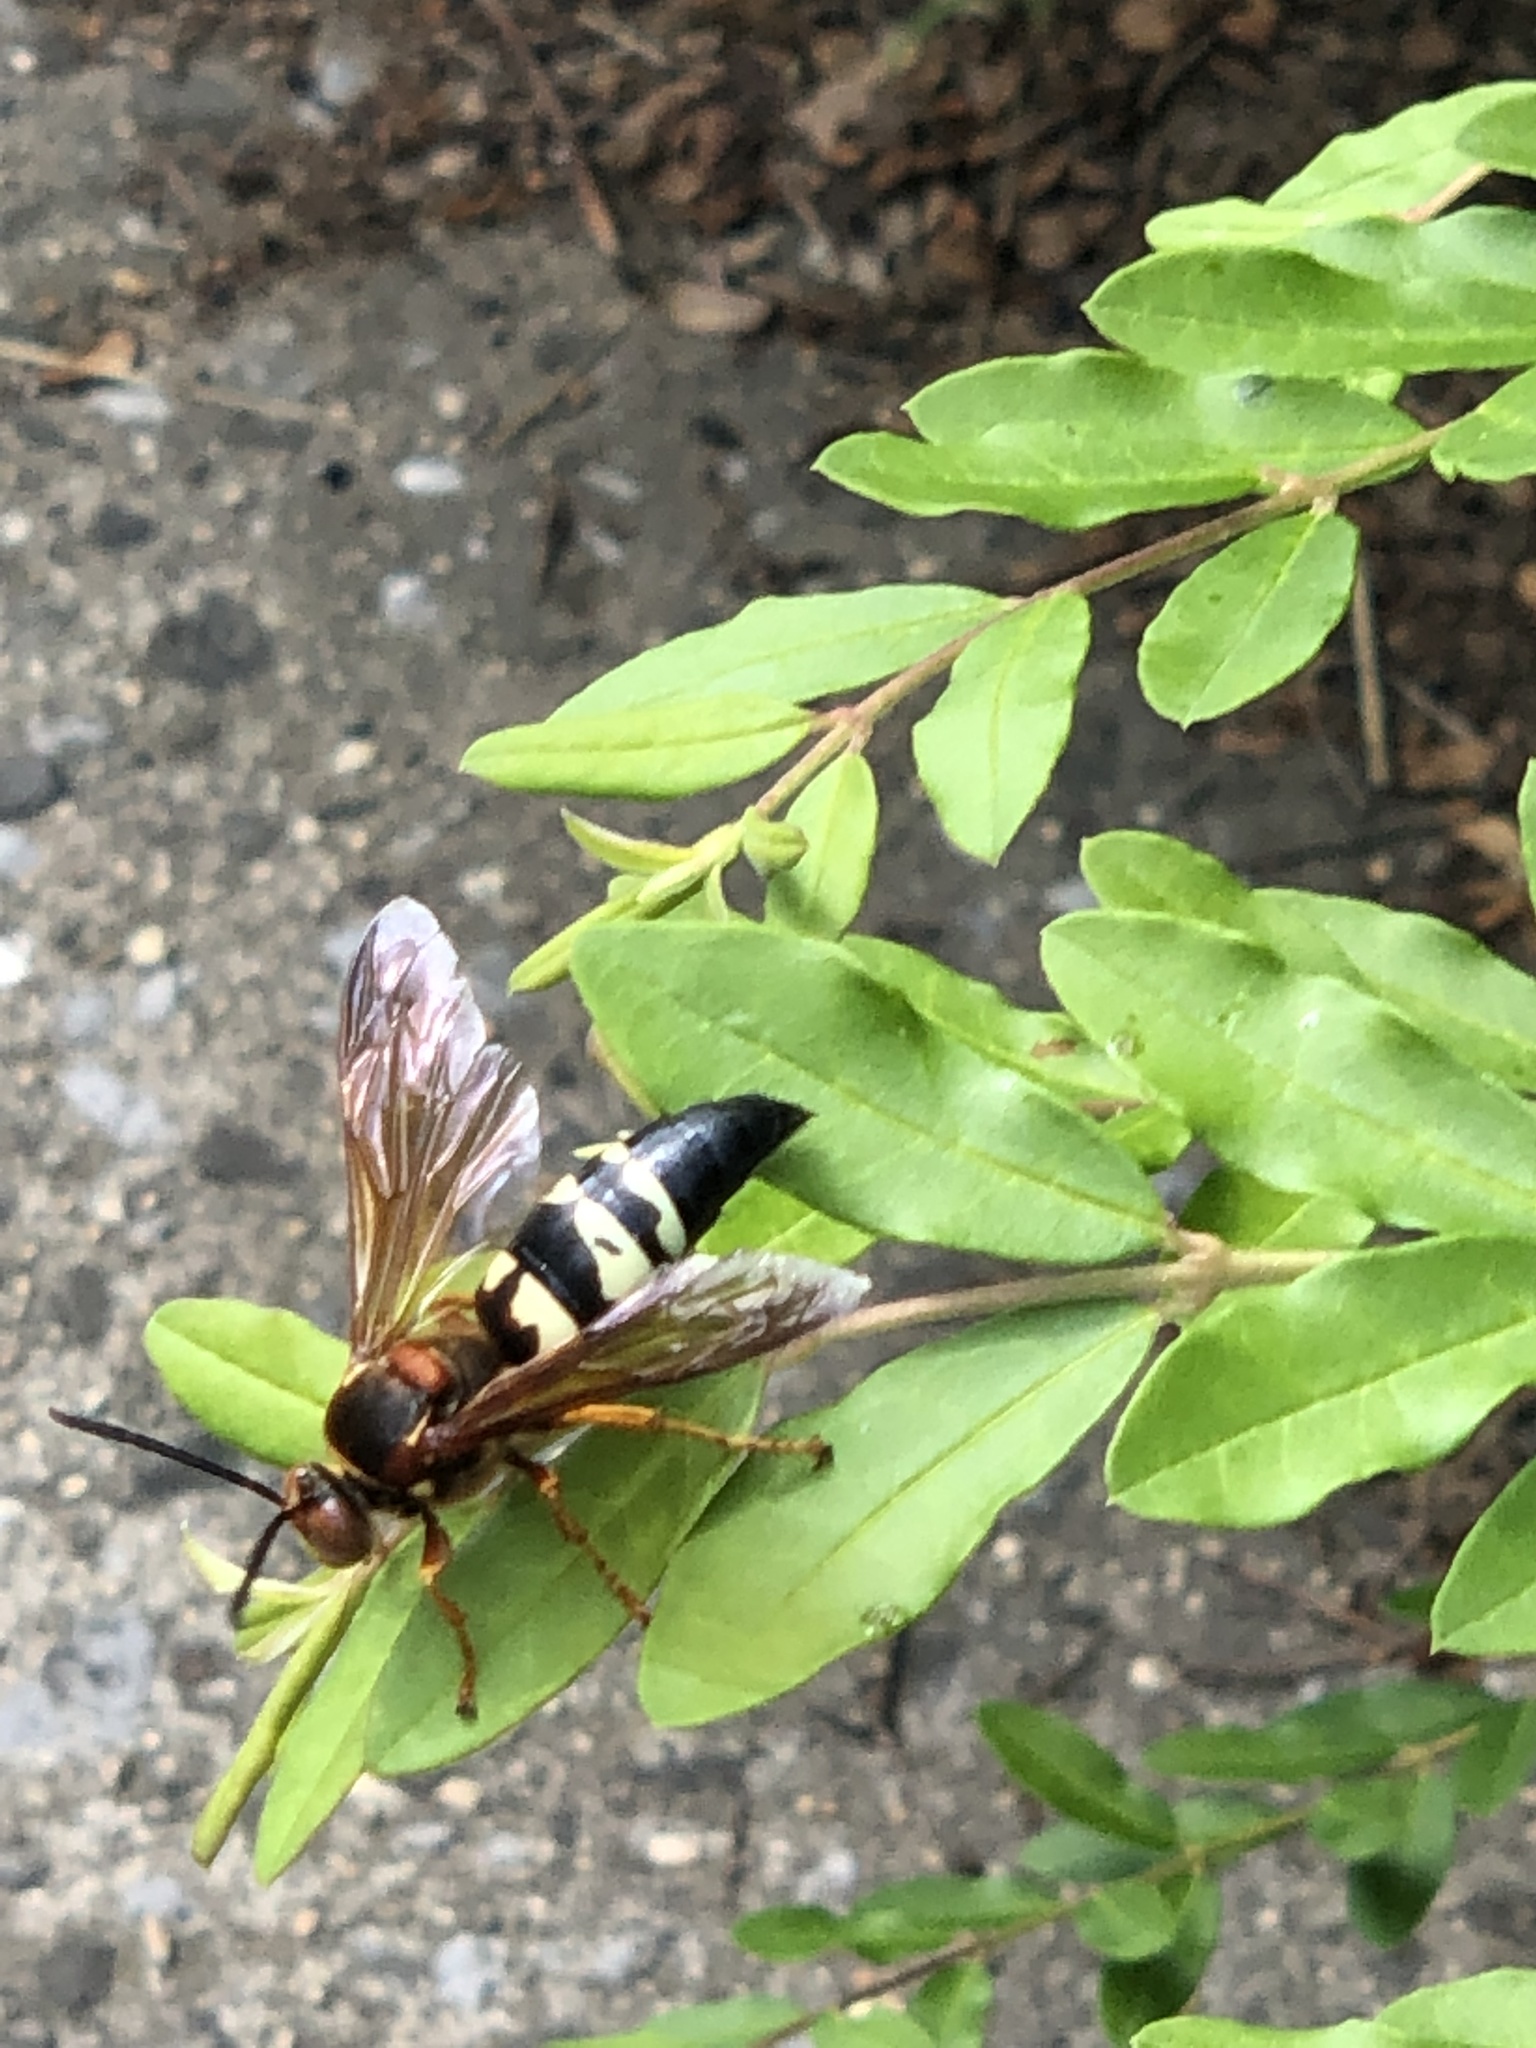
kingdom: Animalia
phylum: Arthropoda
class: Insecta
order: Hymenoptera
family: Crabronidae
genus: Sphecius
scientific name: Sphecius speciosus
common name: Cicada killer
